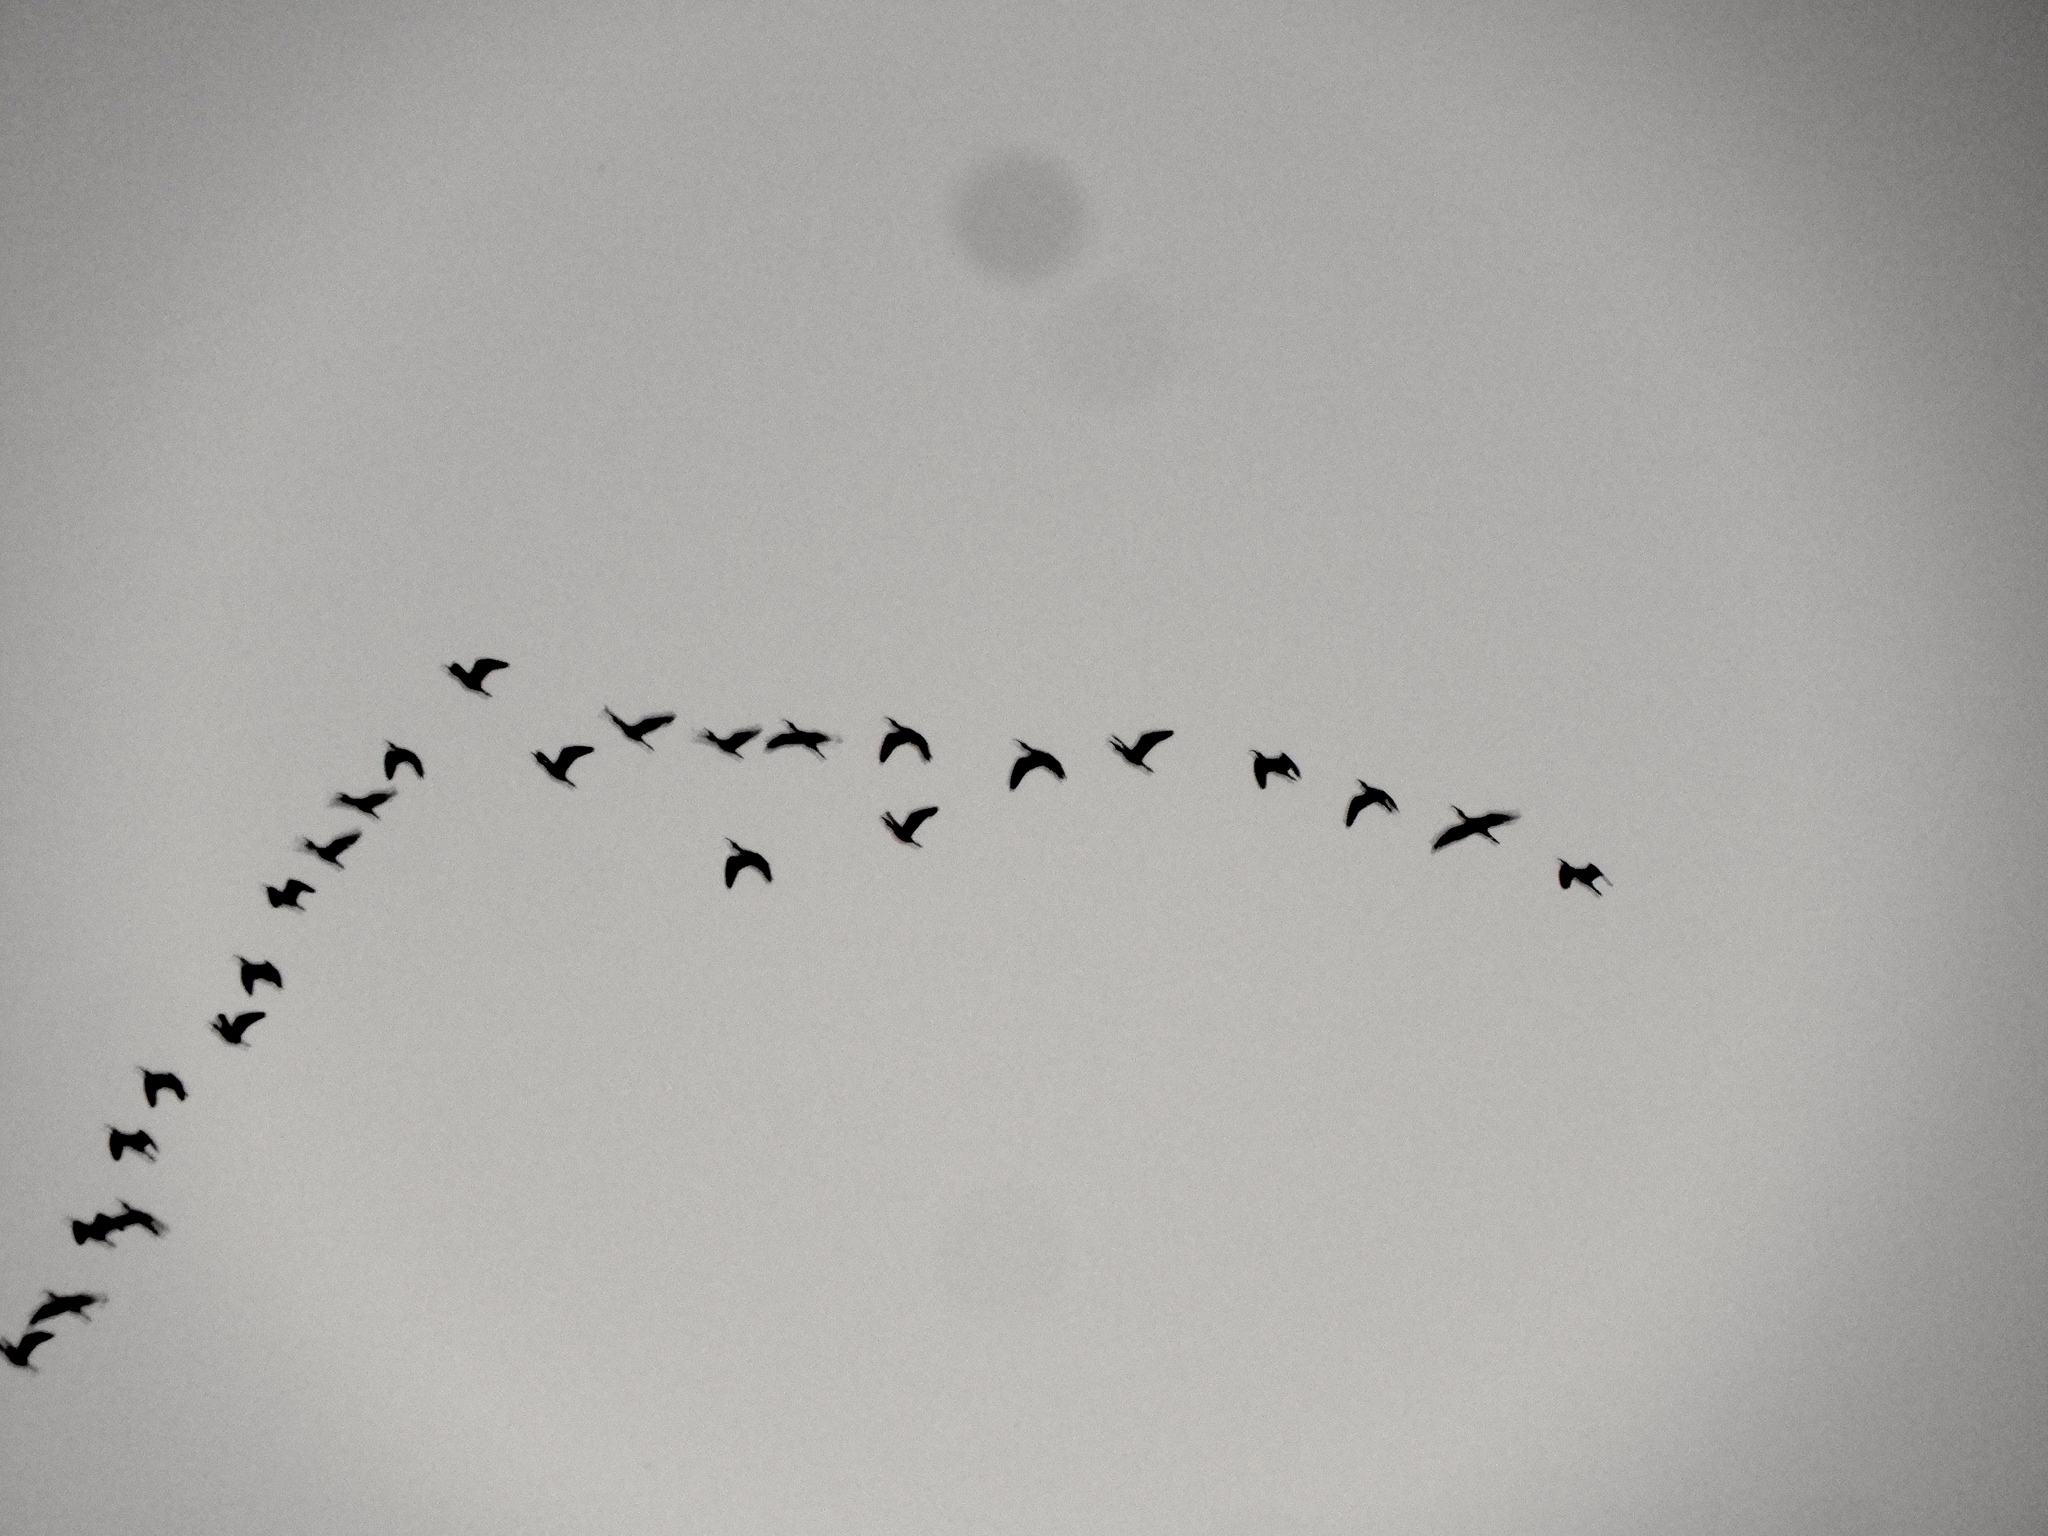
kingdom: Animalia
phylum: Chordata
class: Aves
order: Pelecaniformes
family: Threskiornithidae
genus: Plegadis
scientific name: Plegadis chihi
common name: White-faced ibis
